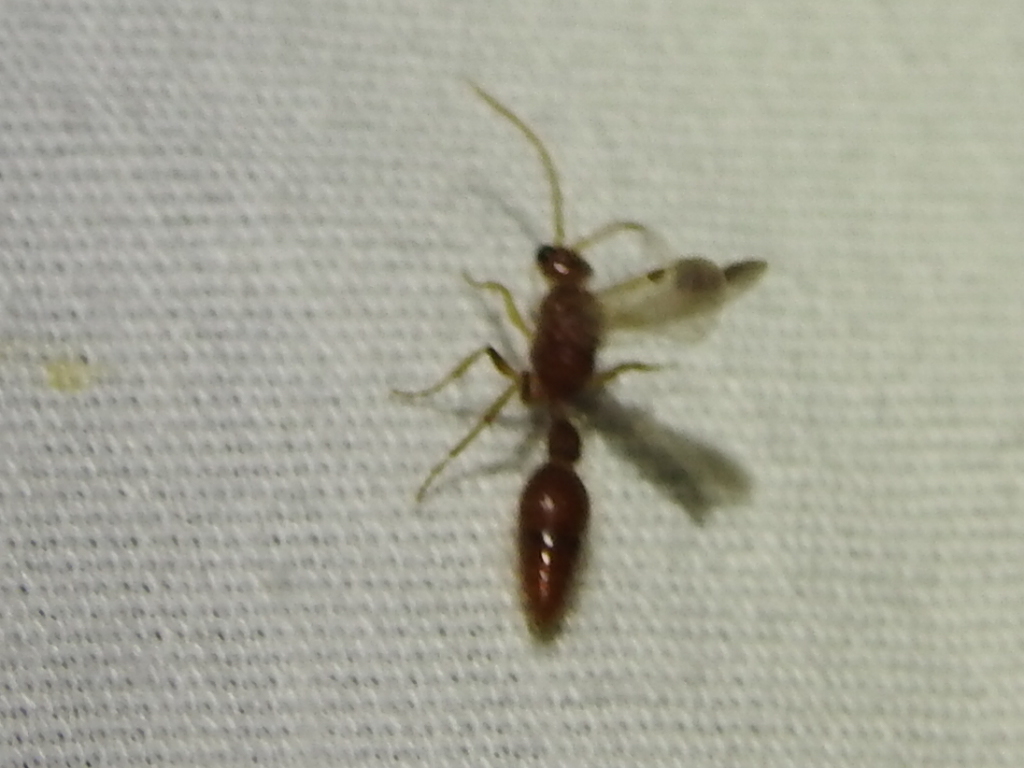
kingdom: Animalia
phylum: Arthropoda
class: Insecta
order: Hymenoptera
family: Chyphotidae
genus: Chyphotes
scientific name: Chyphotes
